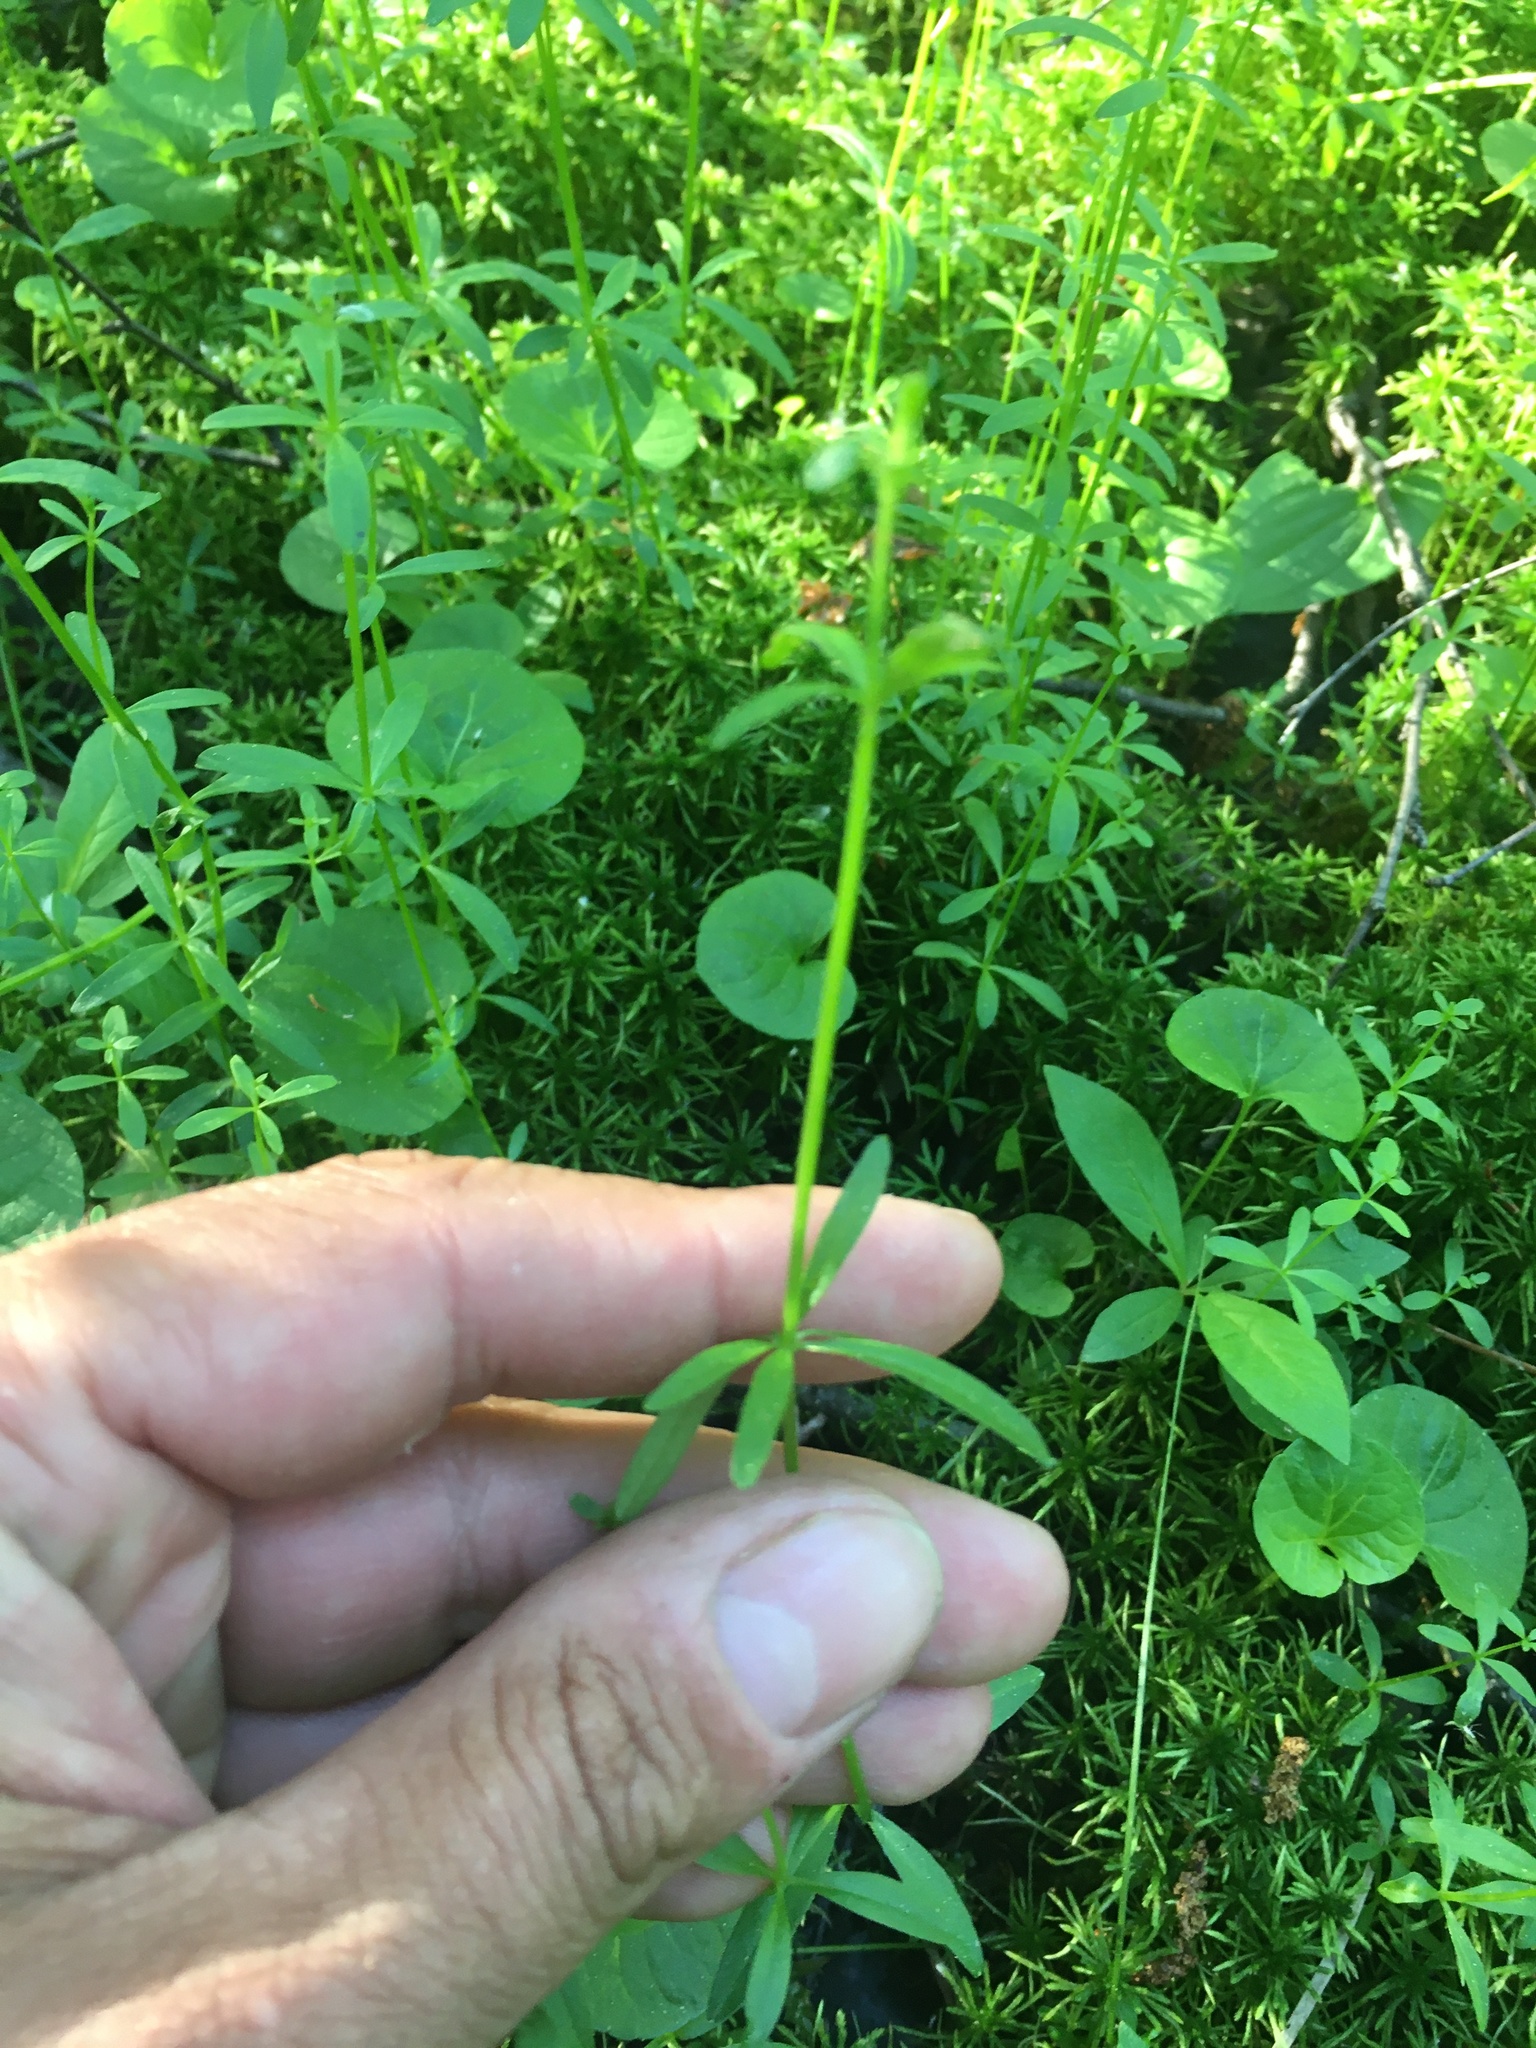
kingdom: Plantae
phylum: Tracheophyta
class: Magnoliopsida
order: Gentianales
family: Rubiaceae
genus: Galium
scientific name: Galium palustre
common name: Common marsh-bedstraw
